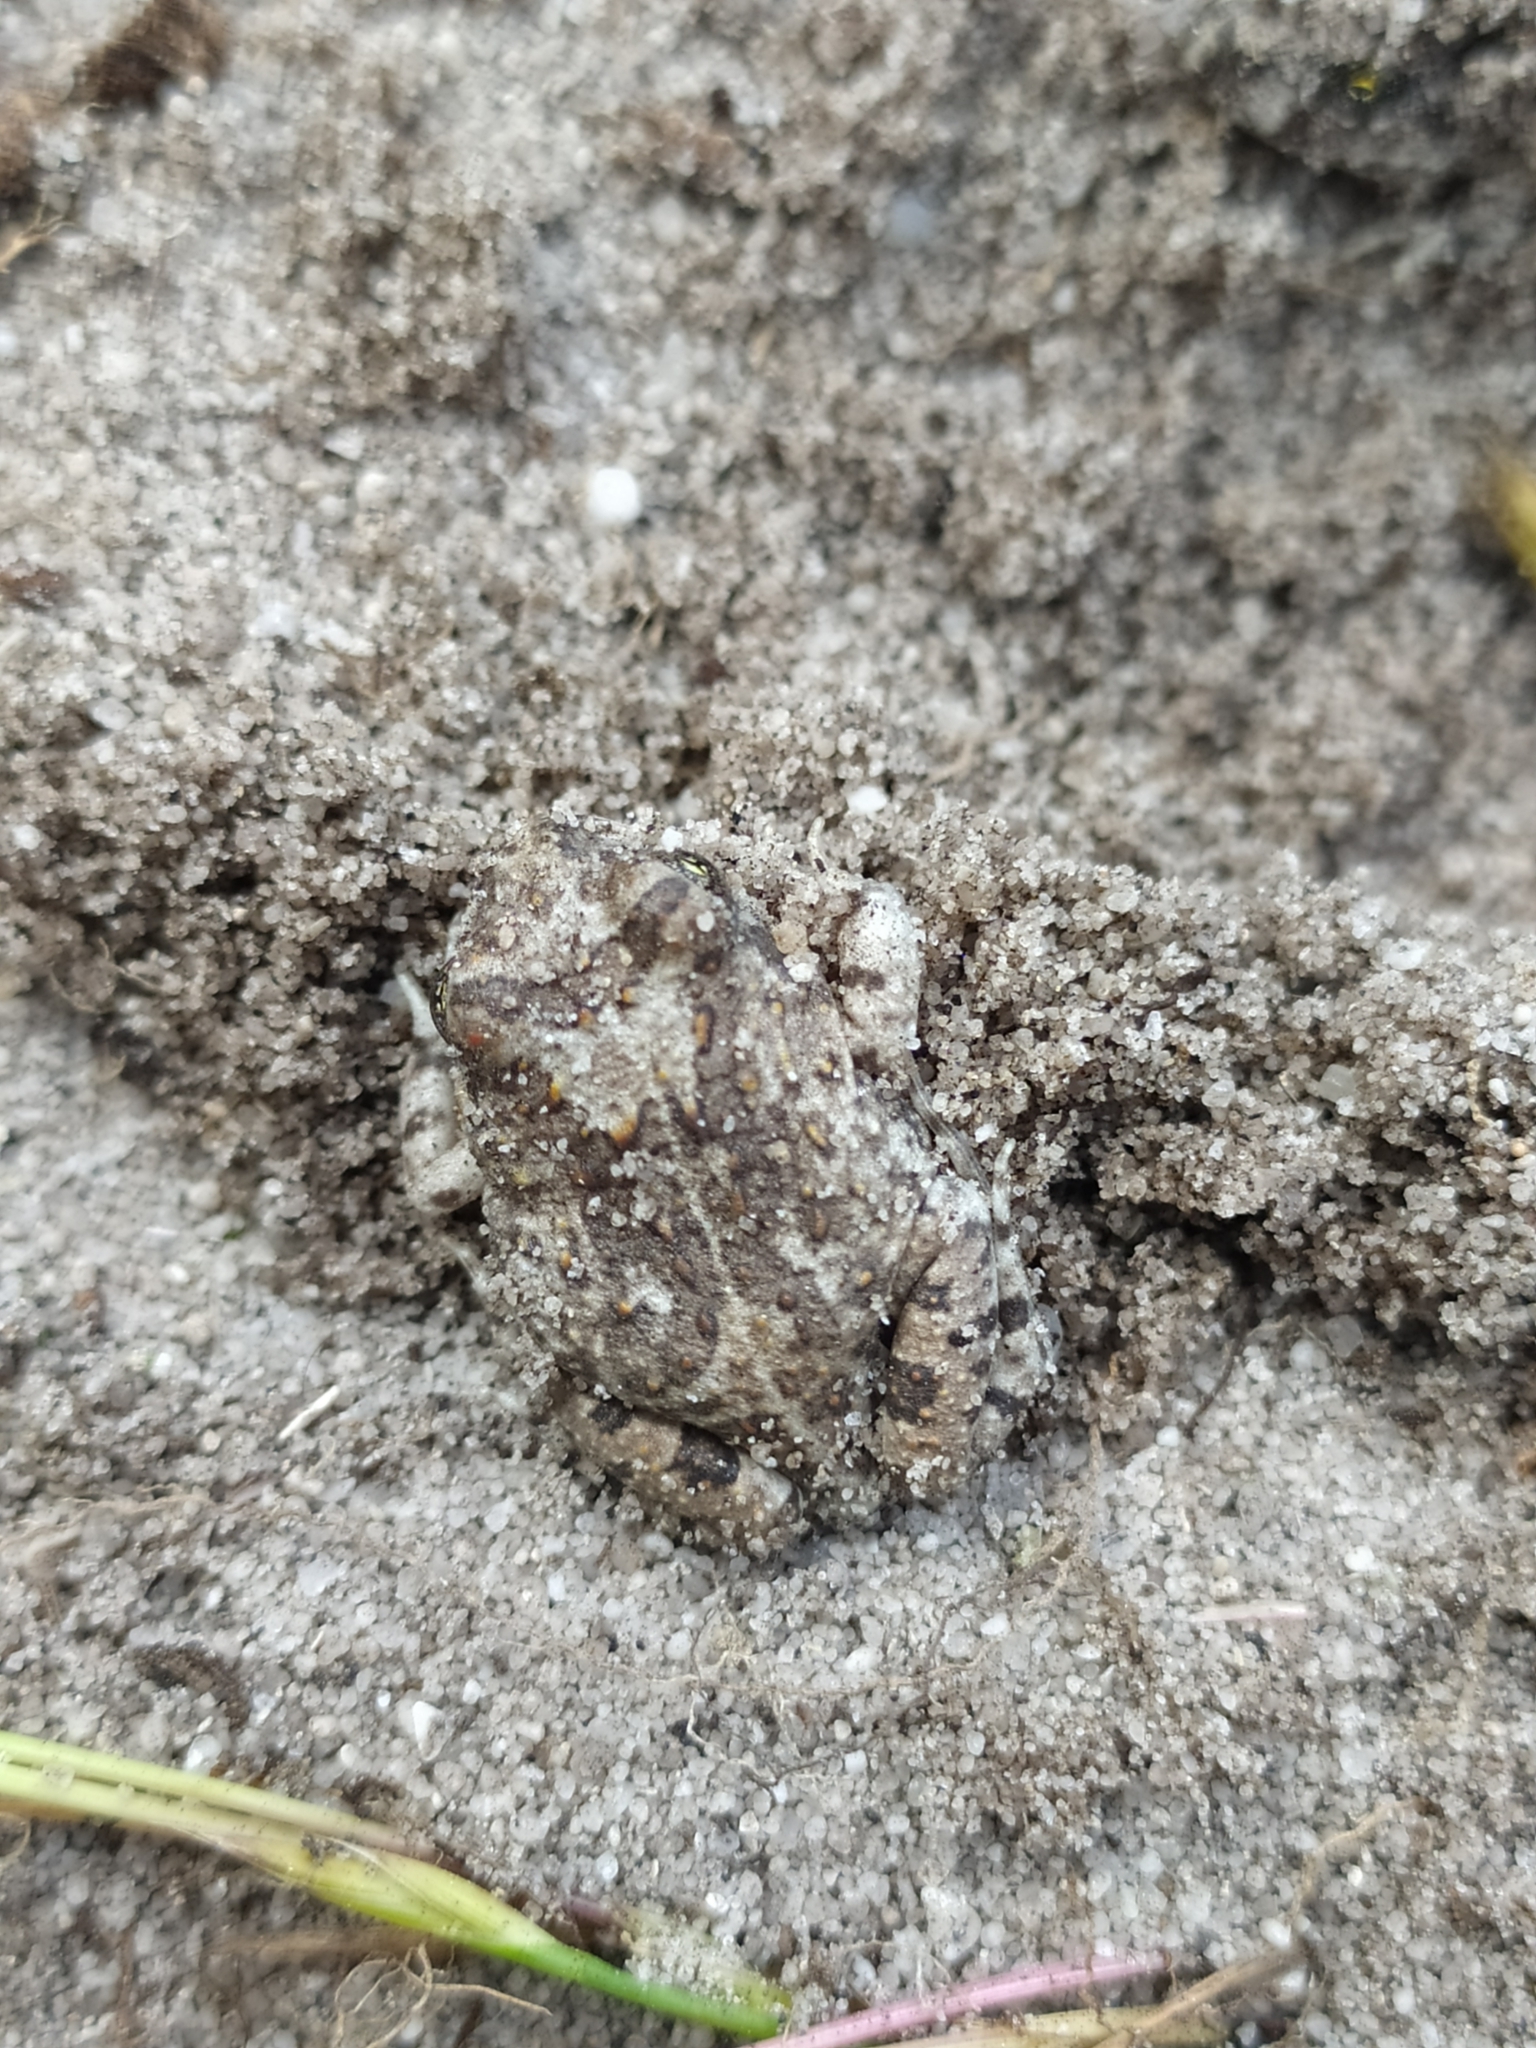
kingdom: Animalia
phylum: Chordata
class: Amphibia
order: Anura
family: Pyxicephalidae
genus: Tomopterna
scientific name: Tomopterna delalandii
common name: Delalande's burrowing bullfrog
